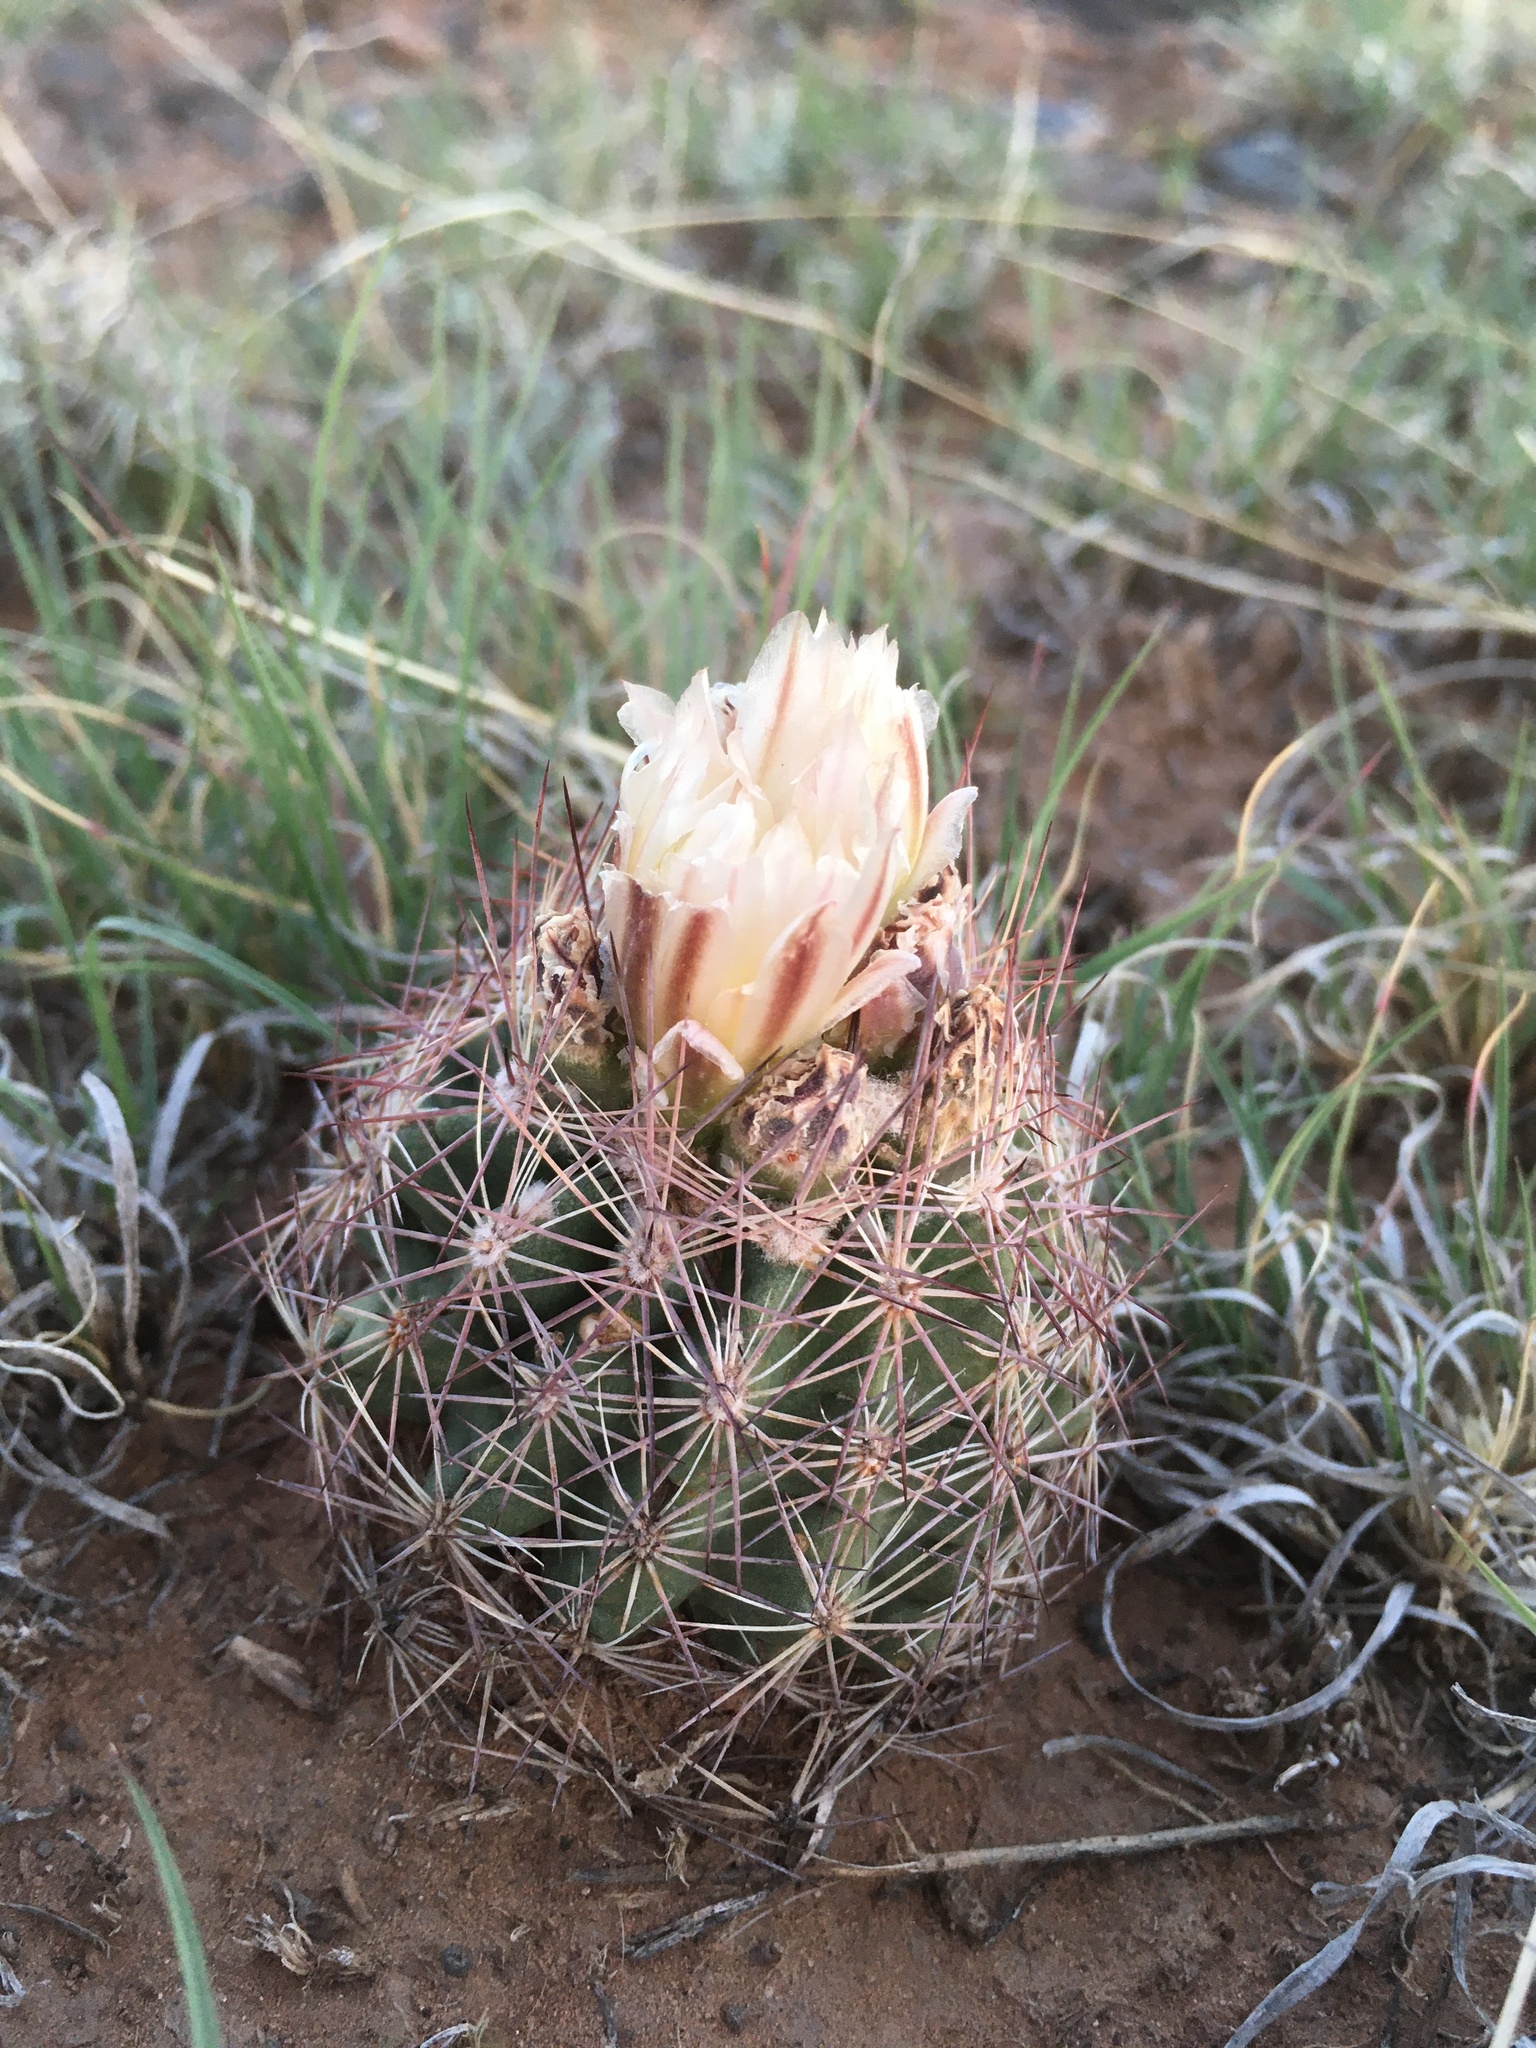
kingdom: Plantae
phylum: Tracheophyta
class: Magnoliopsida
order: Caryophyllales
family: Cactaceae
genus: Sclerocactus
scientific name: Sclerocactus intertextus
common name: White fish-hook cactus
